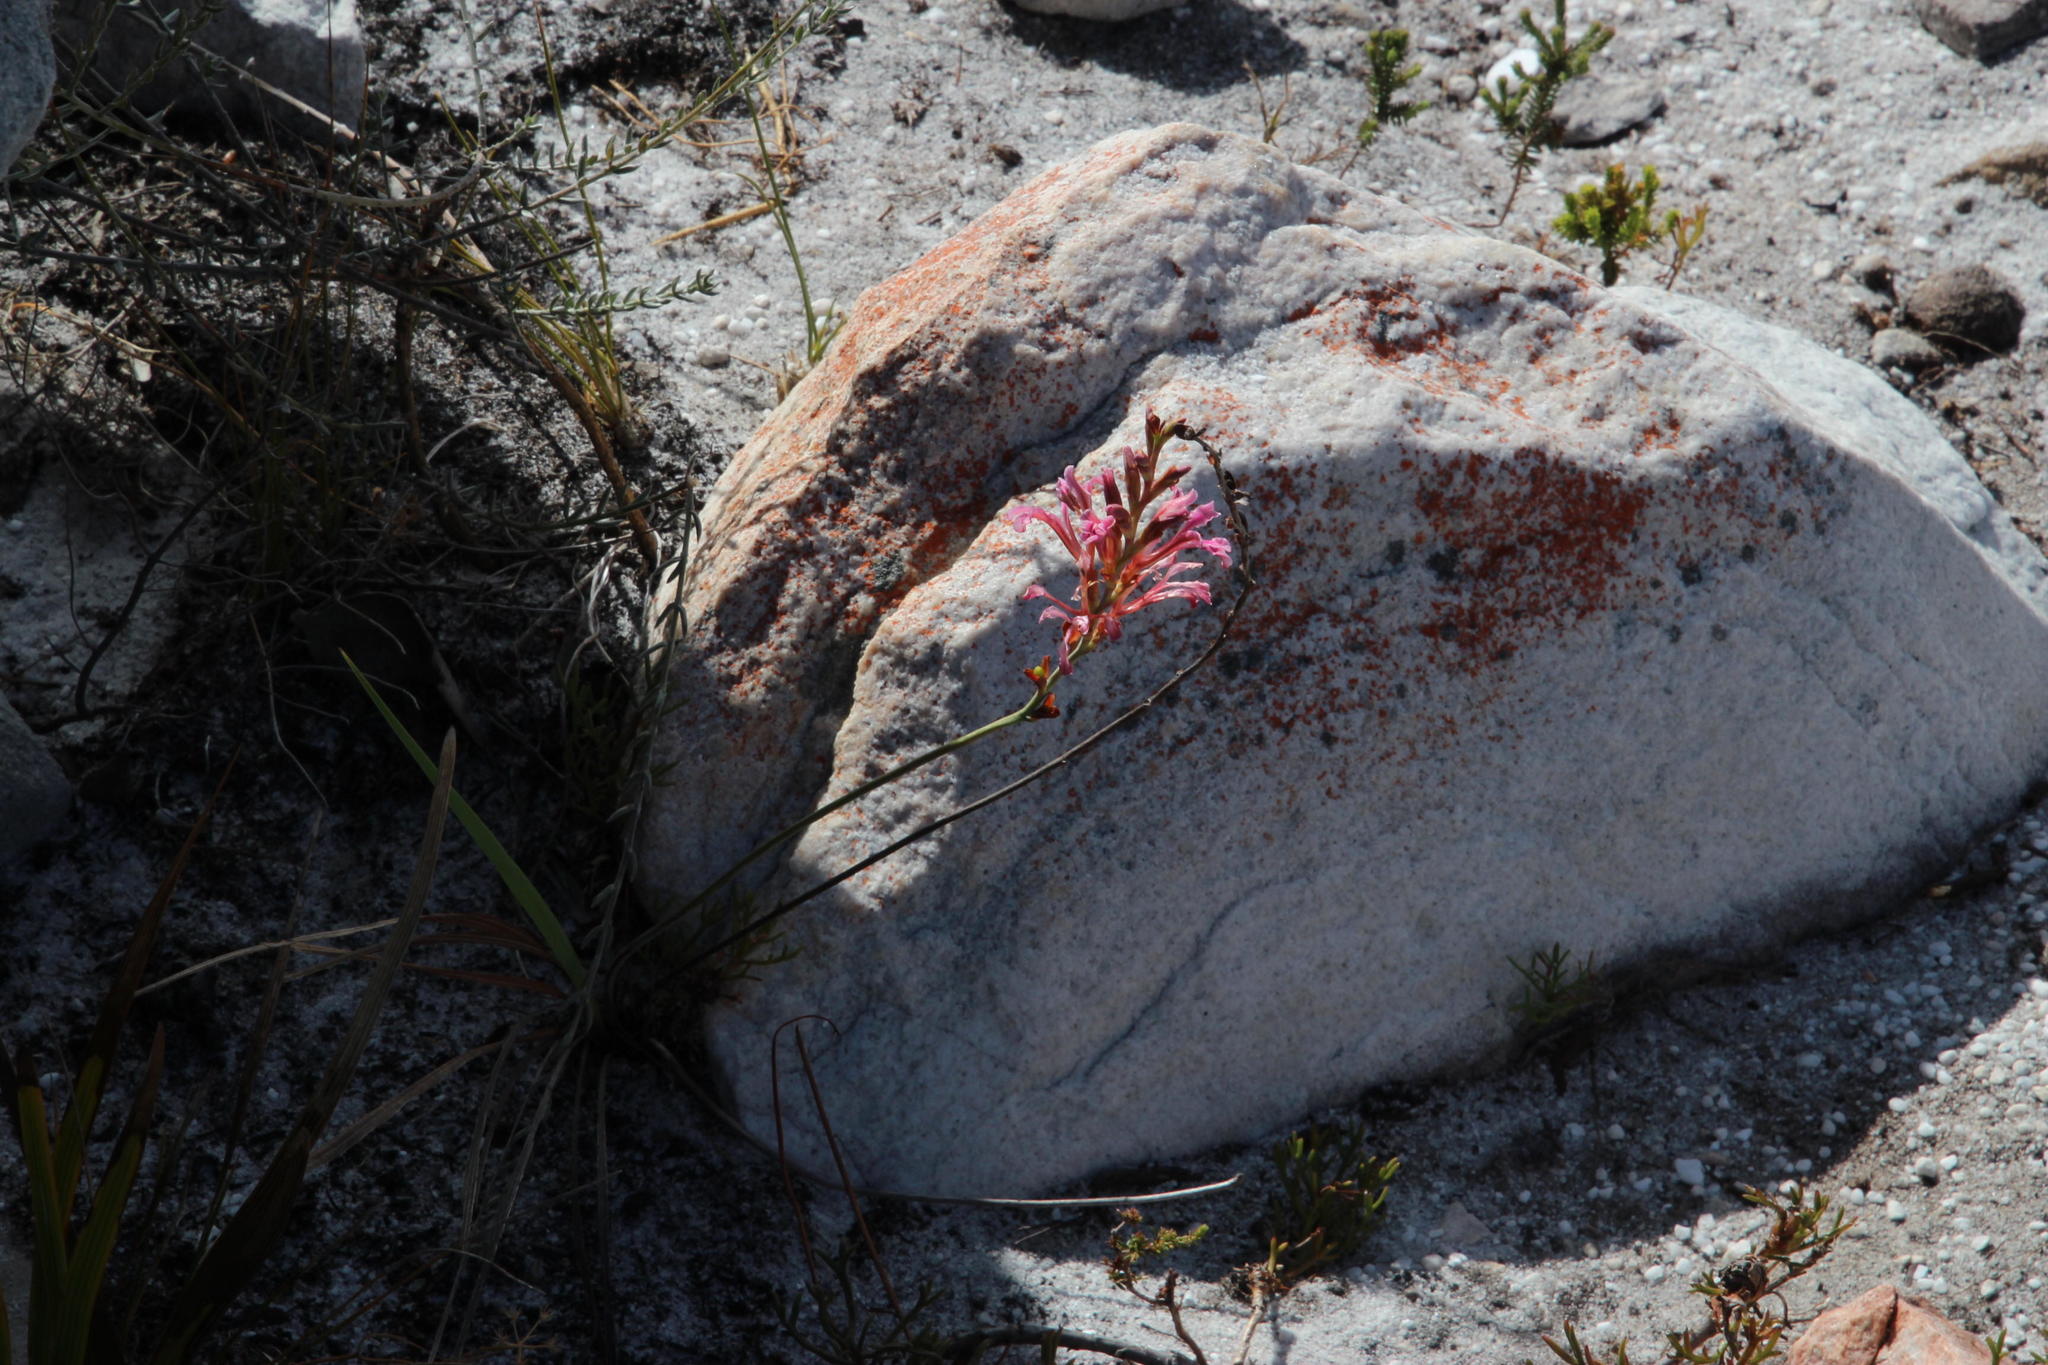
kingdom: Plantae
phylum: Tracheophyta
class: Liliopsida
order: Asparagales
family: Iridaceae
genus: Tritoniopsis
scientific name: Tritoniopsis dodii
